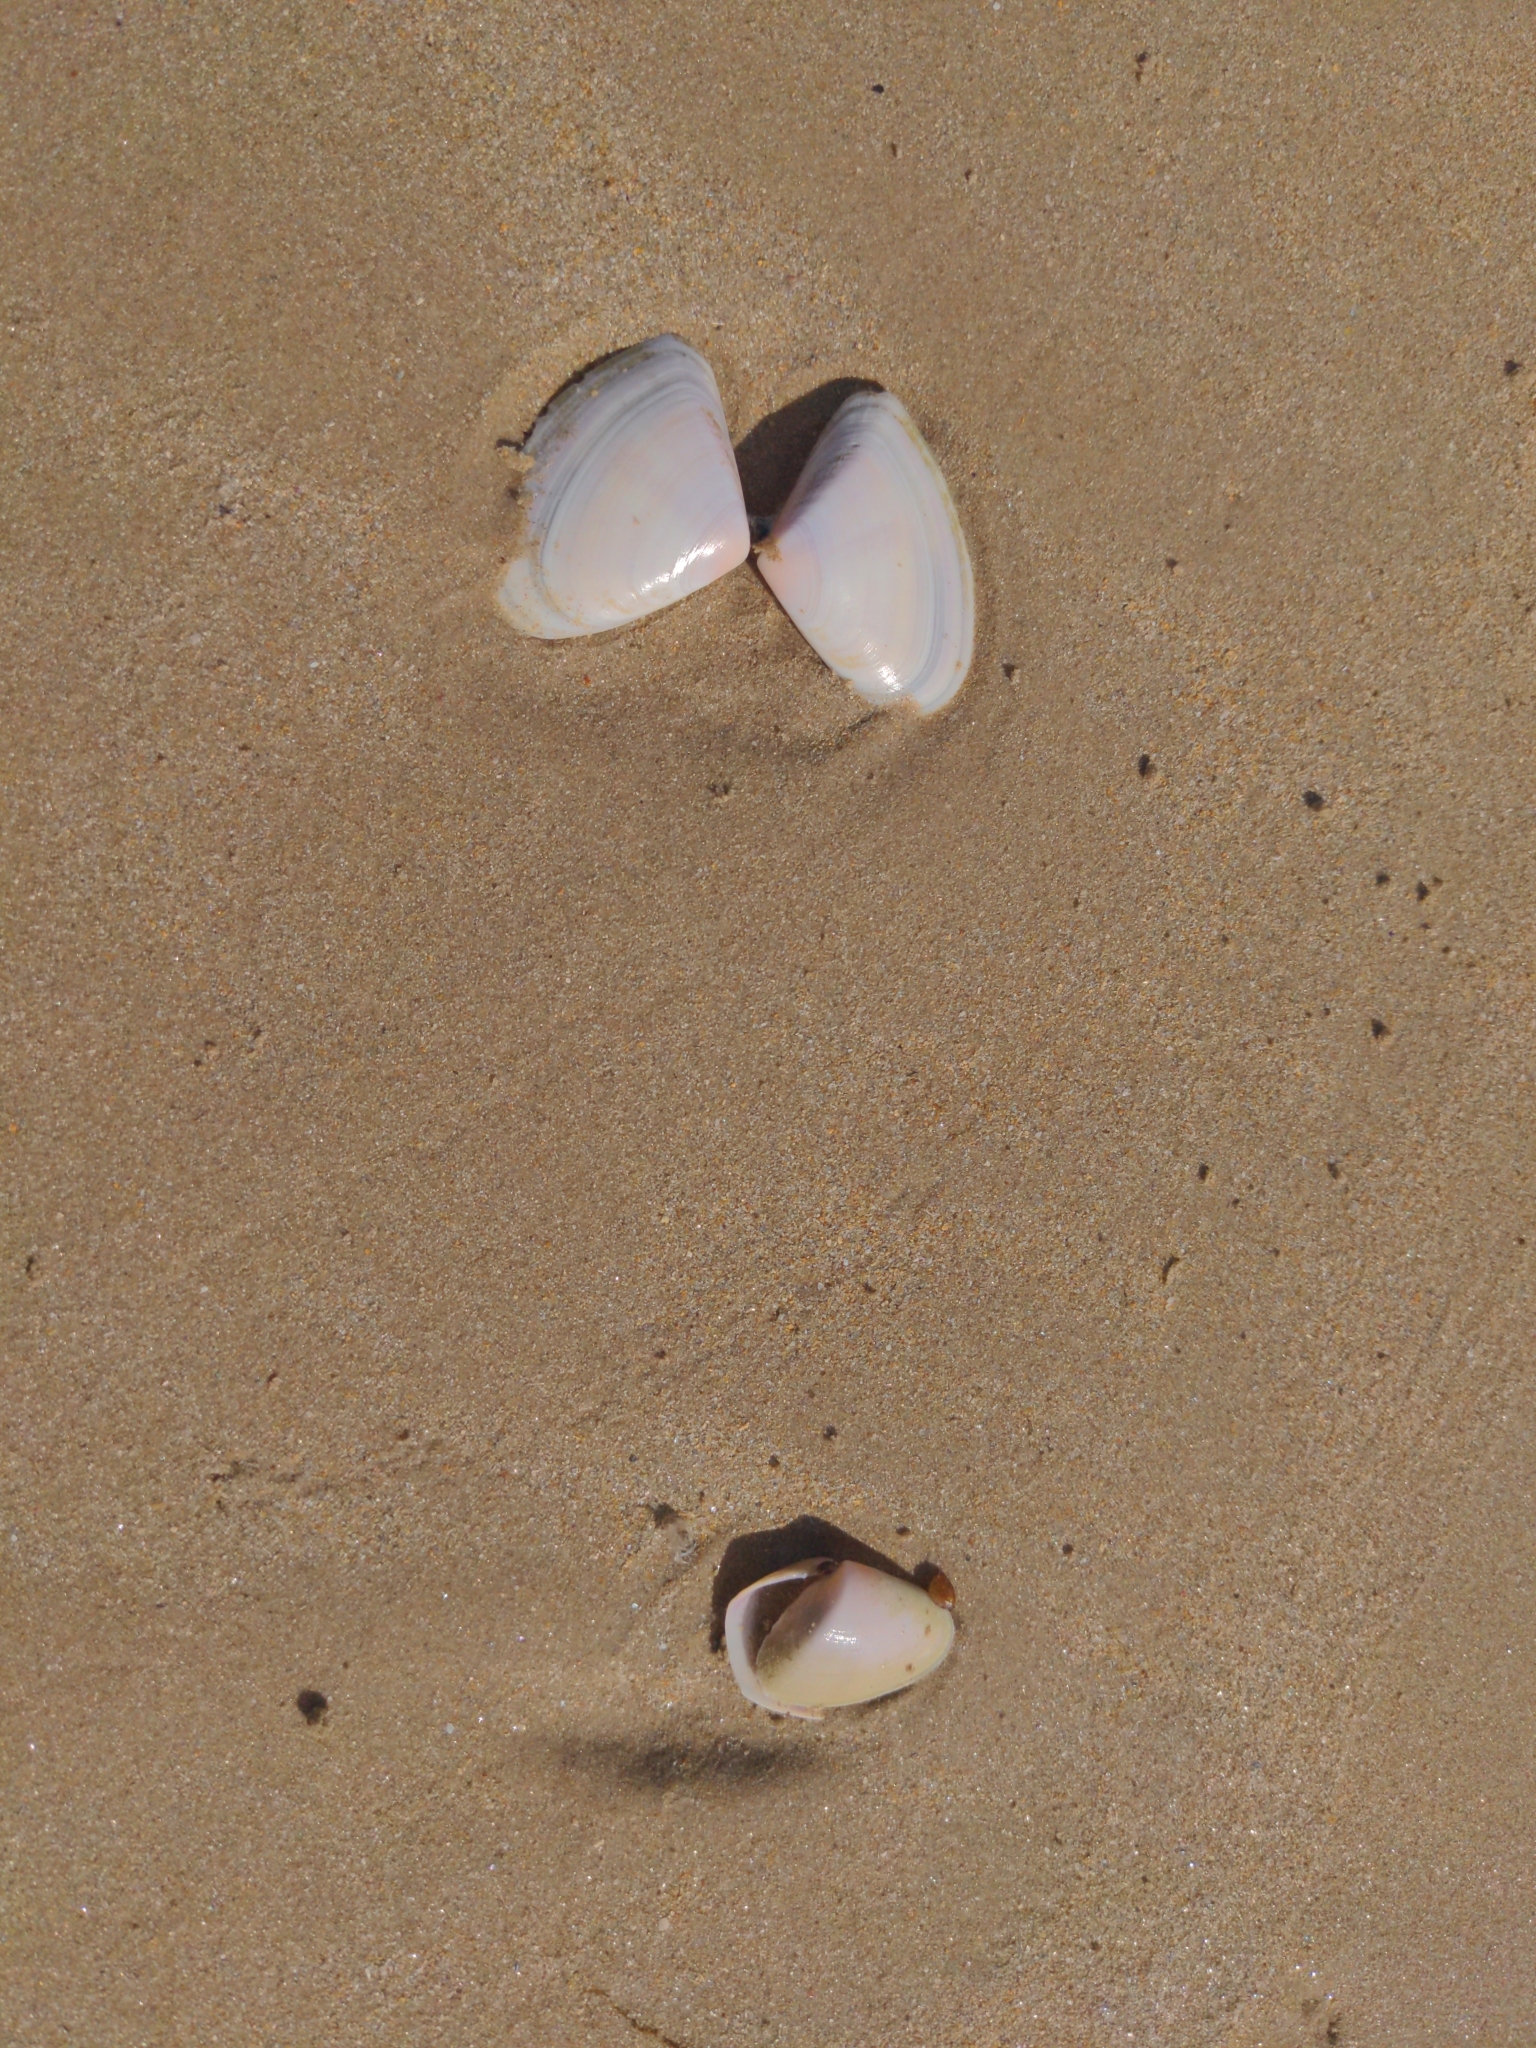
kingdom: Animalia
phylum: Mollusca
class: Bivalvia
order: Cardiida
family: Donacidae
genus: Latona
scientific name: Latona deltoides
